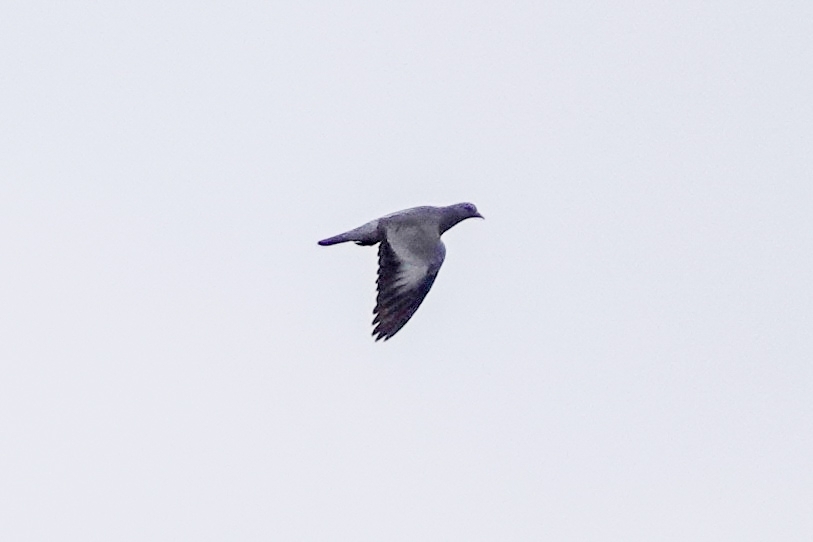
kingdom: Animalia
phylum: Chordata
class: Aves
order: Columbiformes
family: Columbidae
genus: Columba
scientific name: Columba oenas
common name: Stock dove
